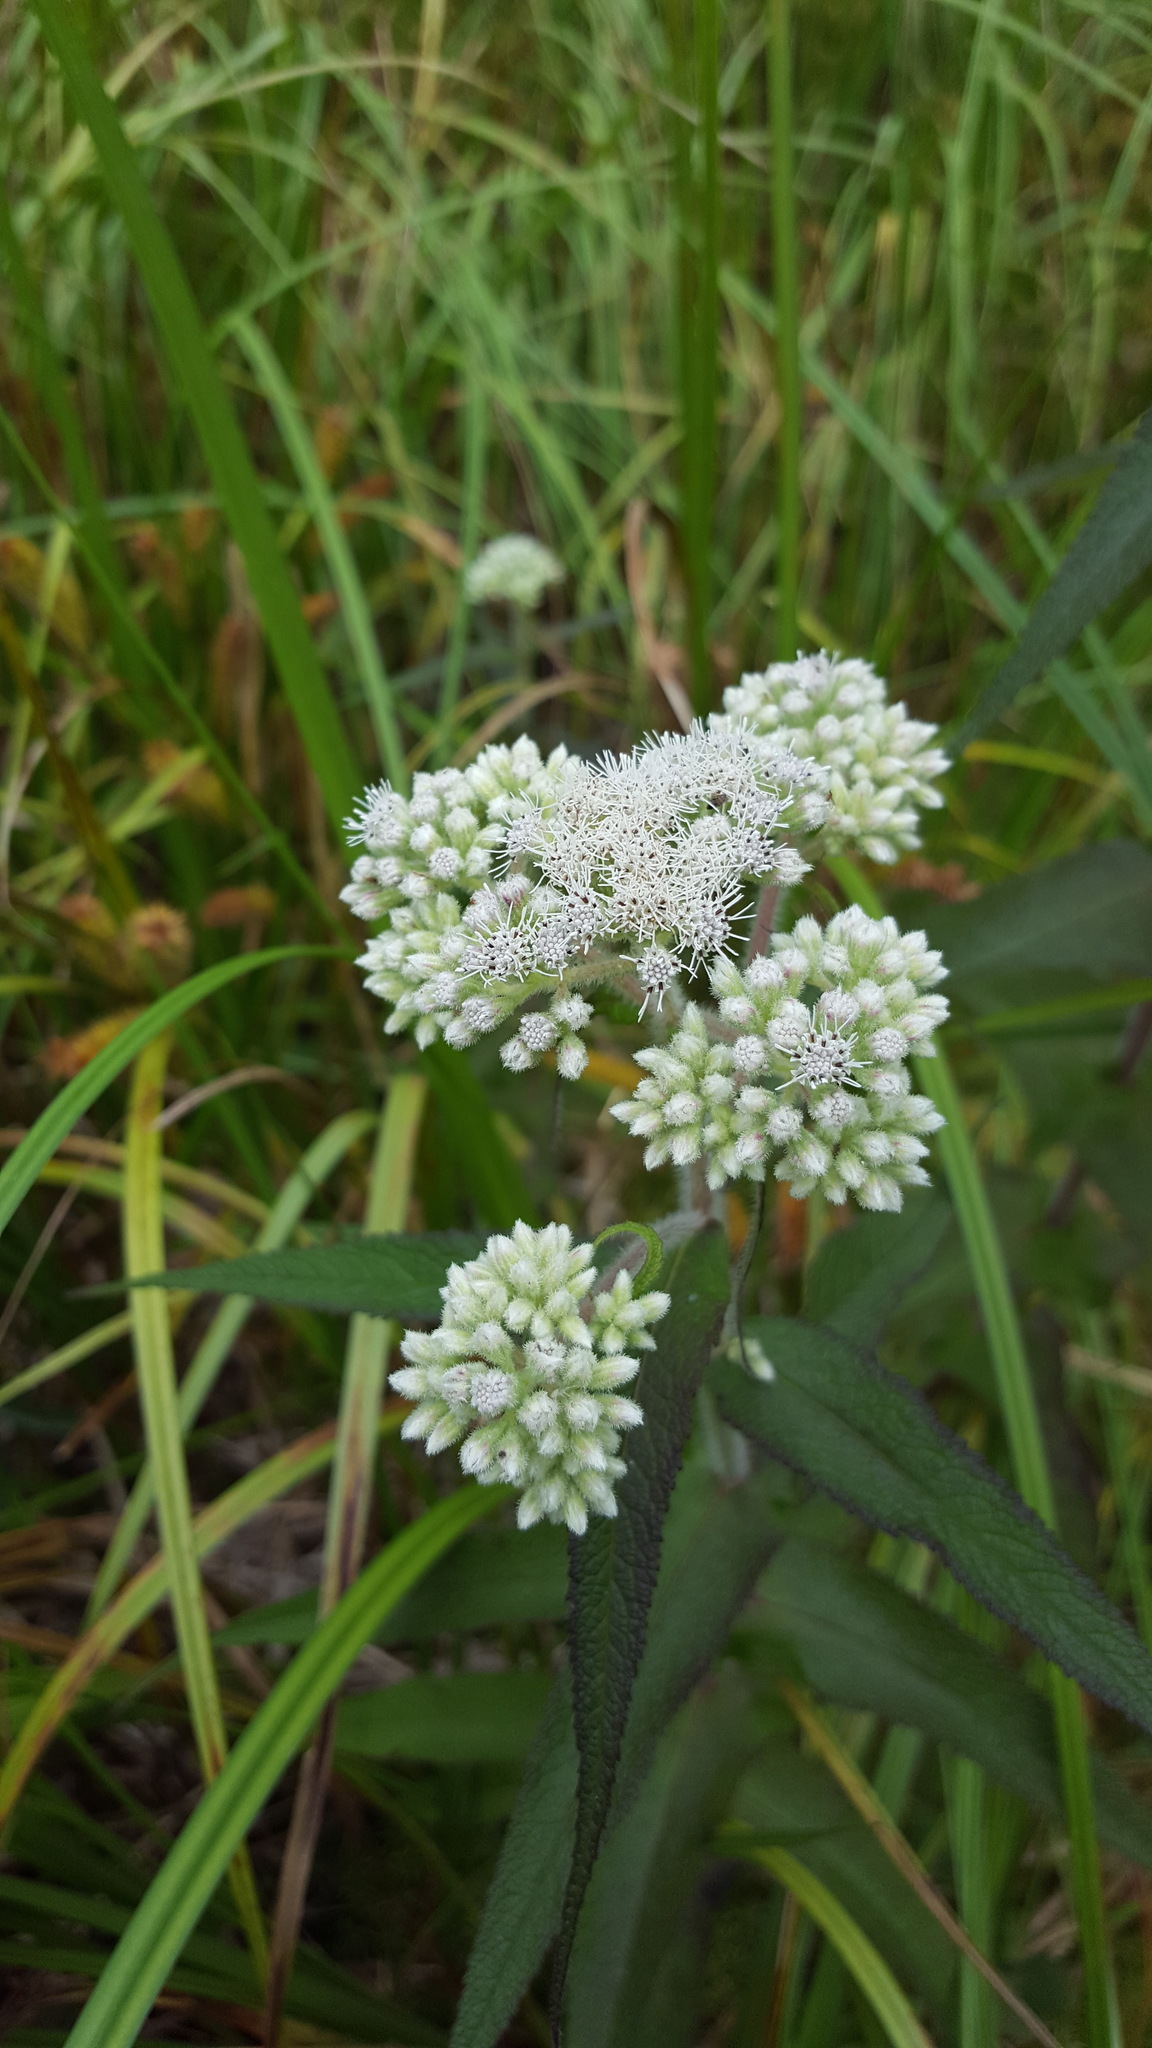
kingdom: Plantae
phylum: Tracheophyta
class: Magnoliopsida
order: Asterales
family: Asteraceae
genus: Eupatorium
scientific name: Eupatorium perfoliatum
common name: Boneset
